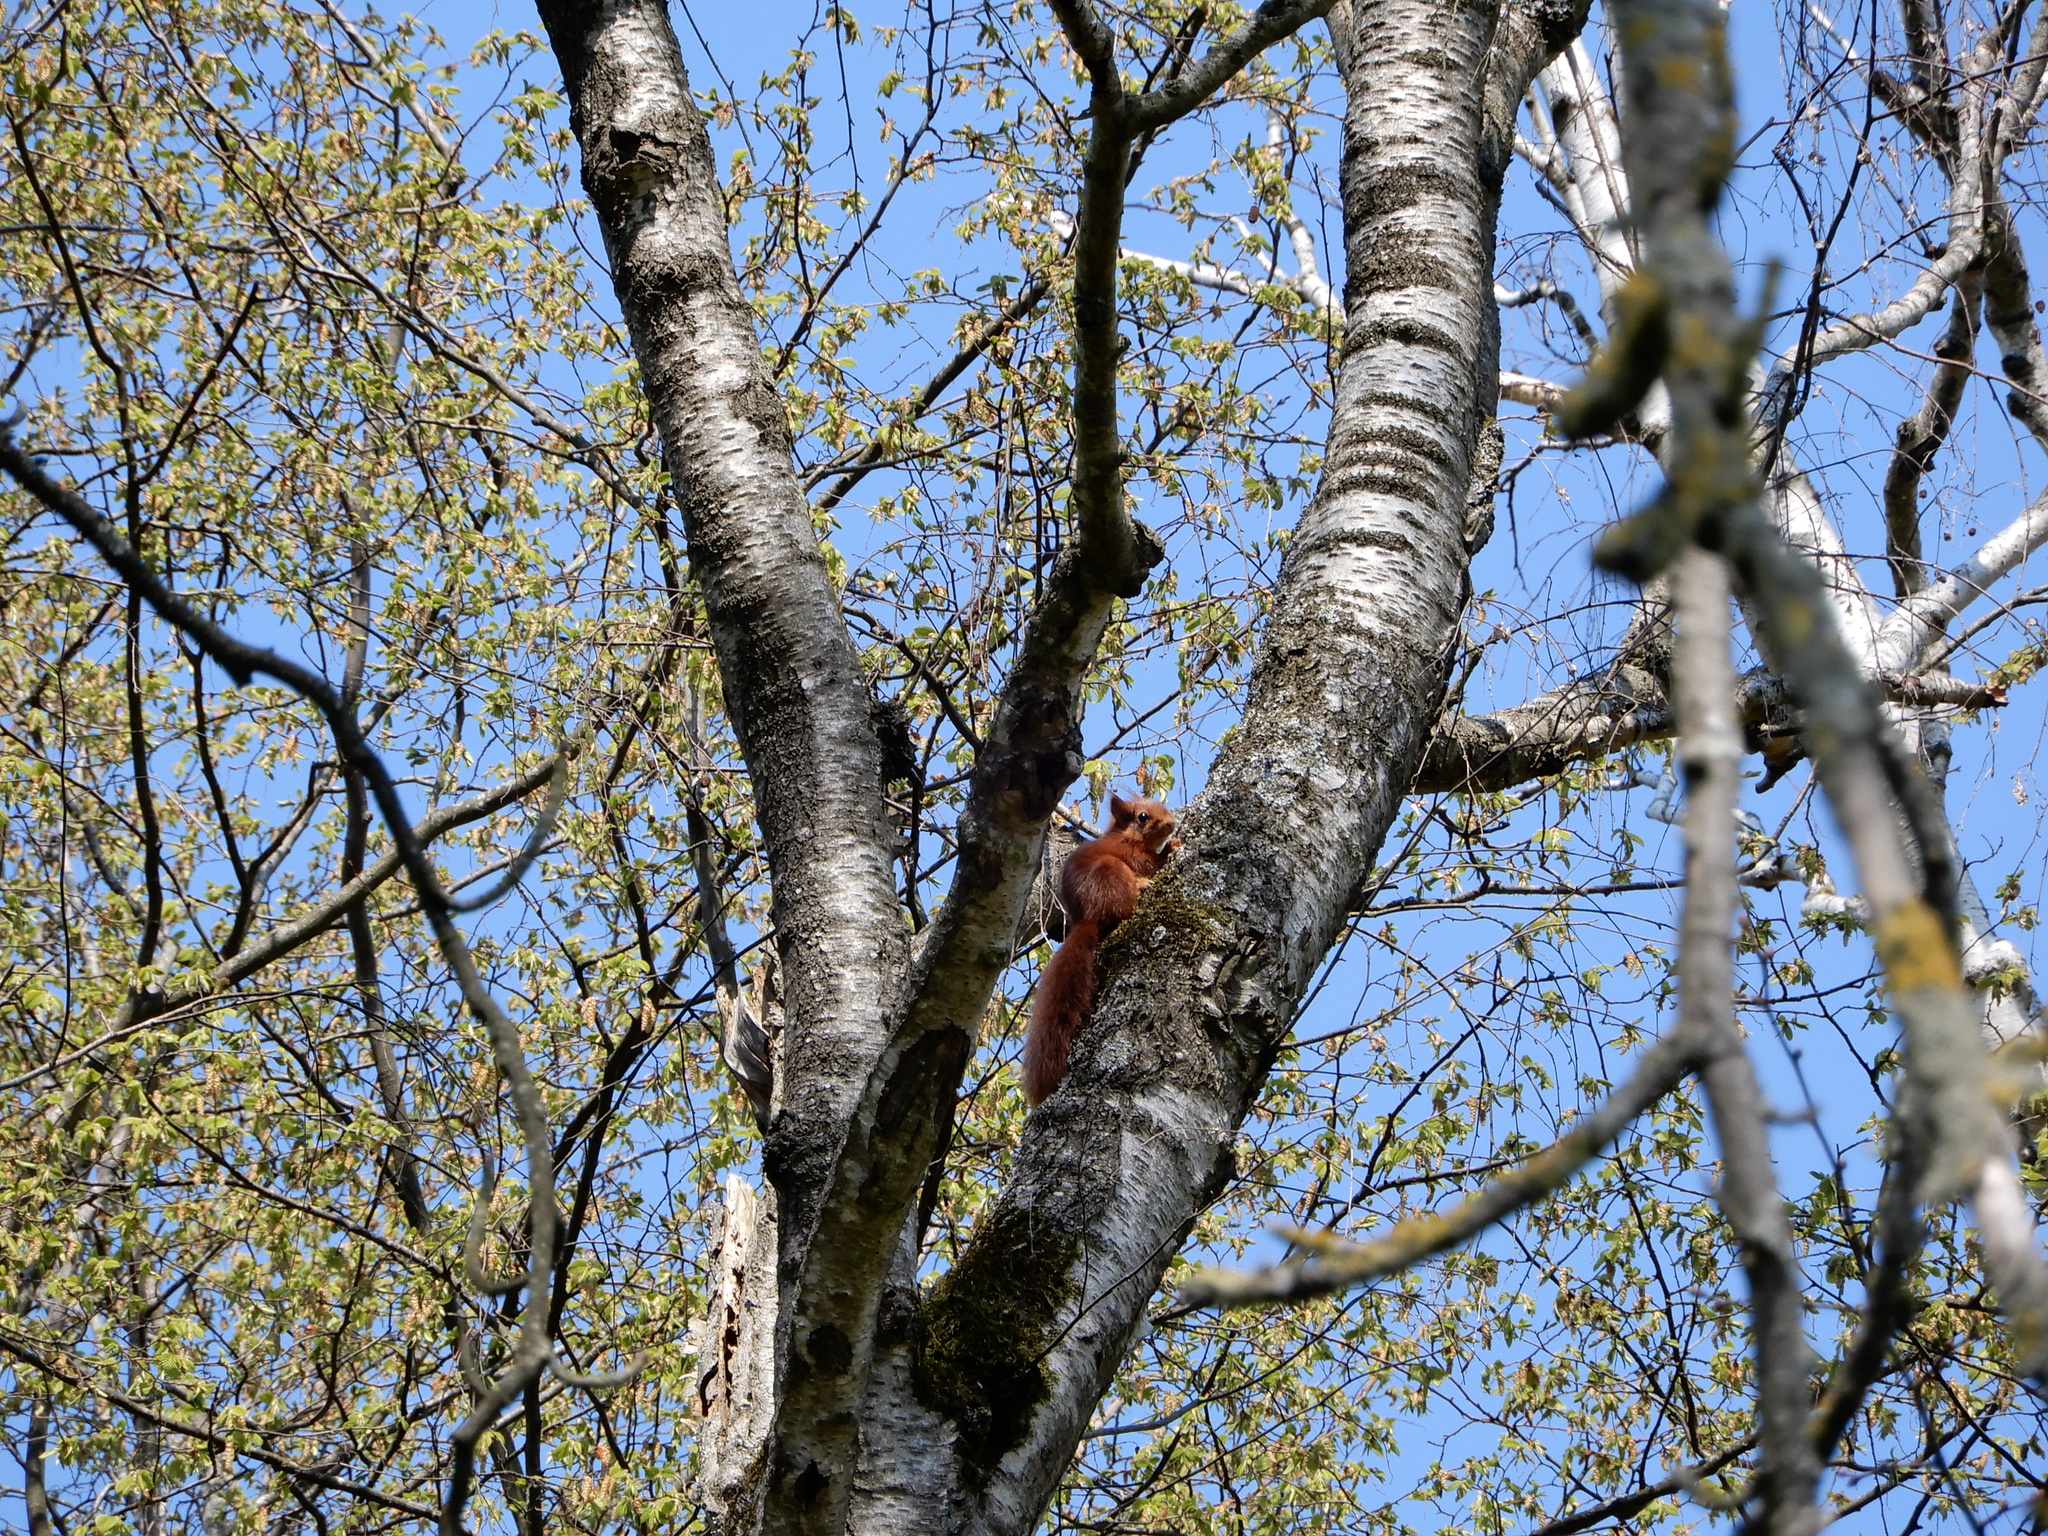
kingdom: Animalia
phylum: Chordata
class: Mammalia
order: Rodentia
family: Sciuridae
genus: Sciurus
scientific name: Sciurus vulgaris
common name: Eurasian red squirrel
